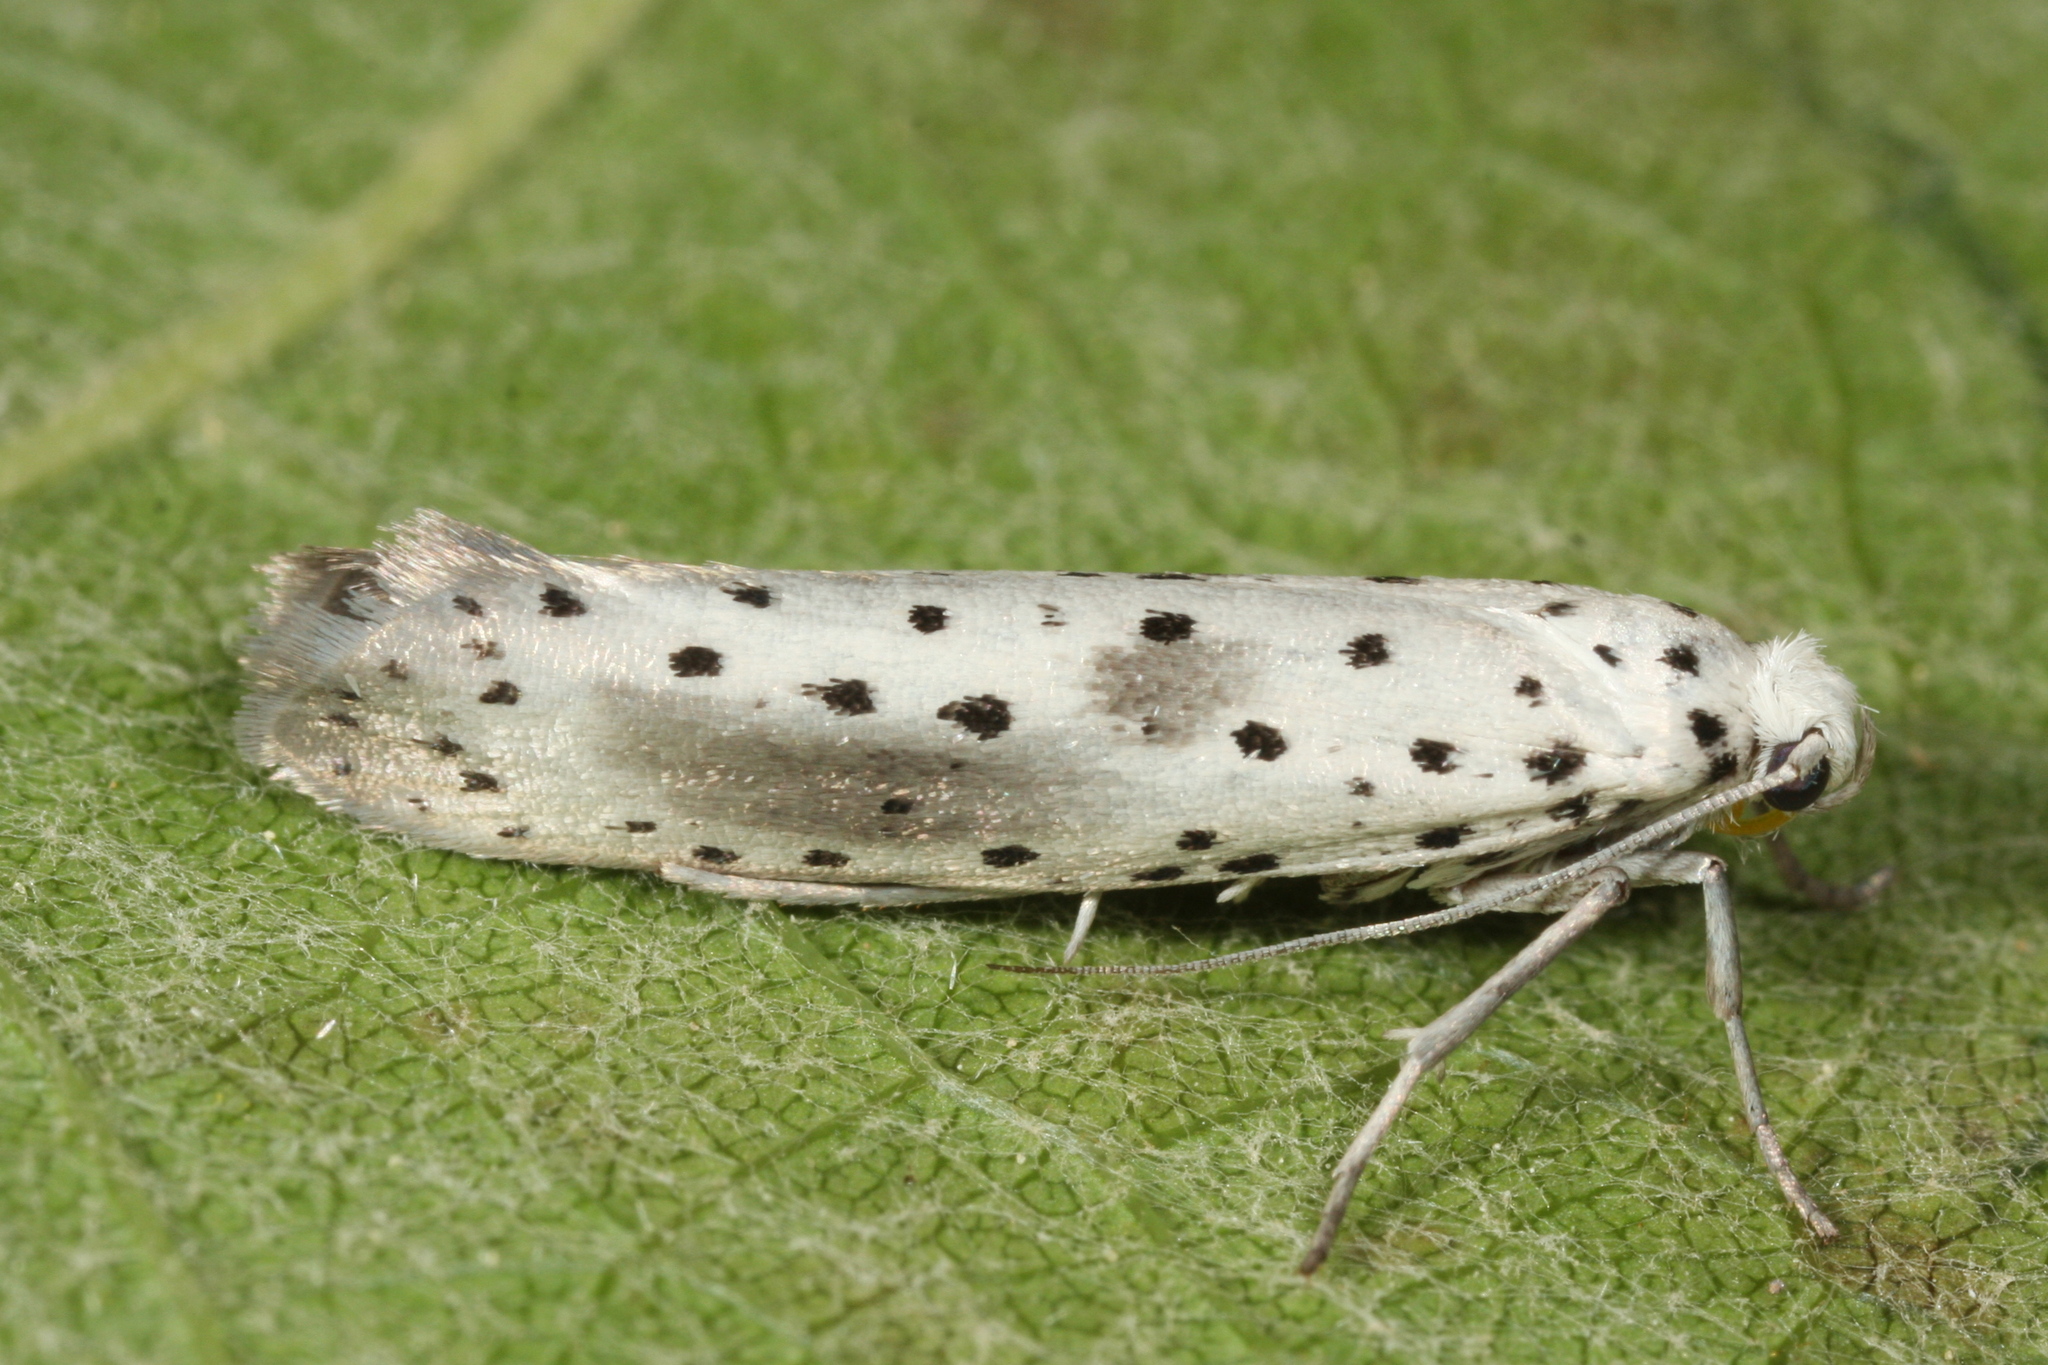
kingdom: Animalia
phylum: Arthropoda
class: Insecta
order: Lepidoptera
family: Yponomeutidae
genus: Yponomeuta
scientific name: Yponomeuta irrorella
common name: Scarce ermine
